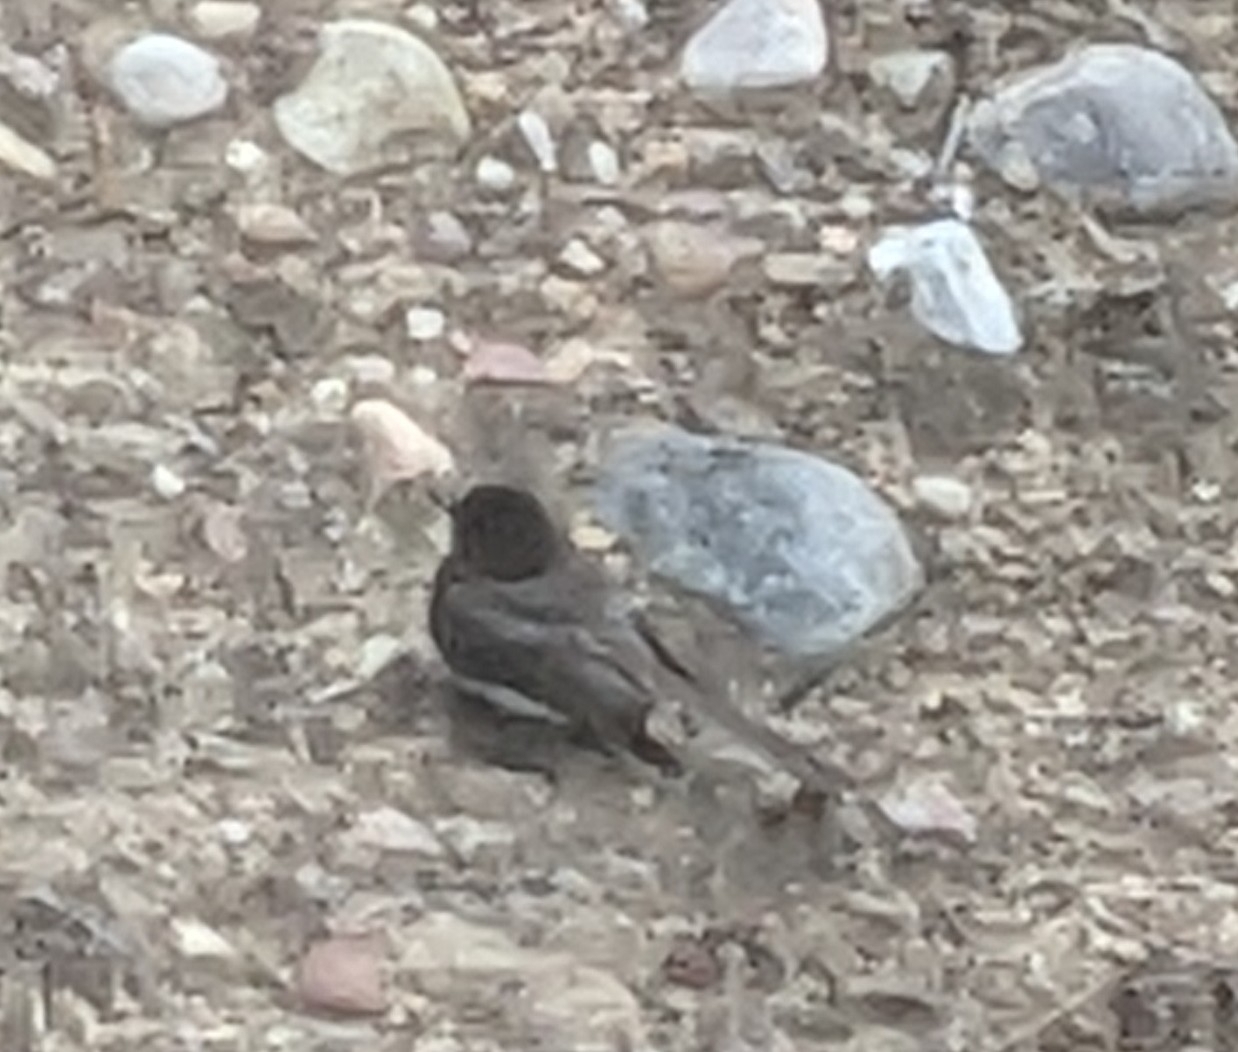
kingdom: Animalia
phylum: Chordata
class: Aves
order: Passeriformes
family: Tyrannidae
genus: Sayornis
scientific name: Sayornis nigricans
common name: Black phoebe
